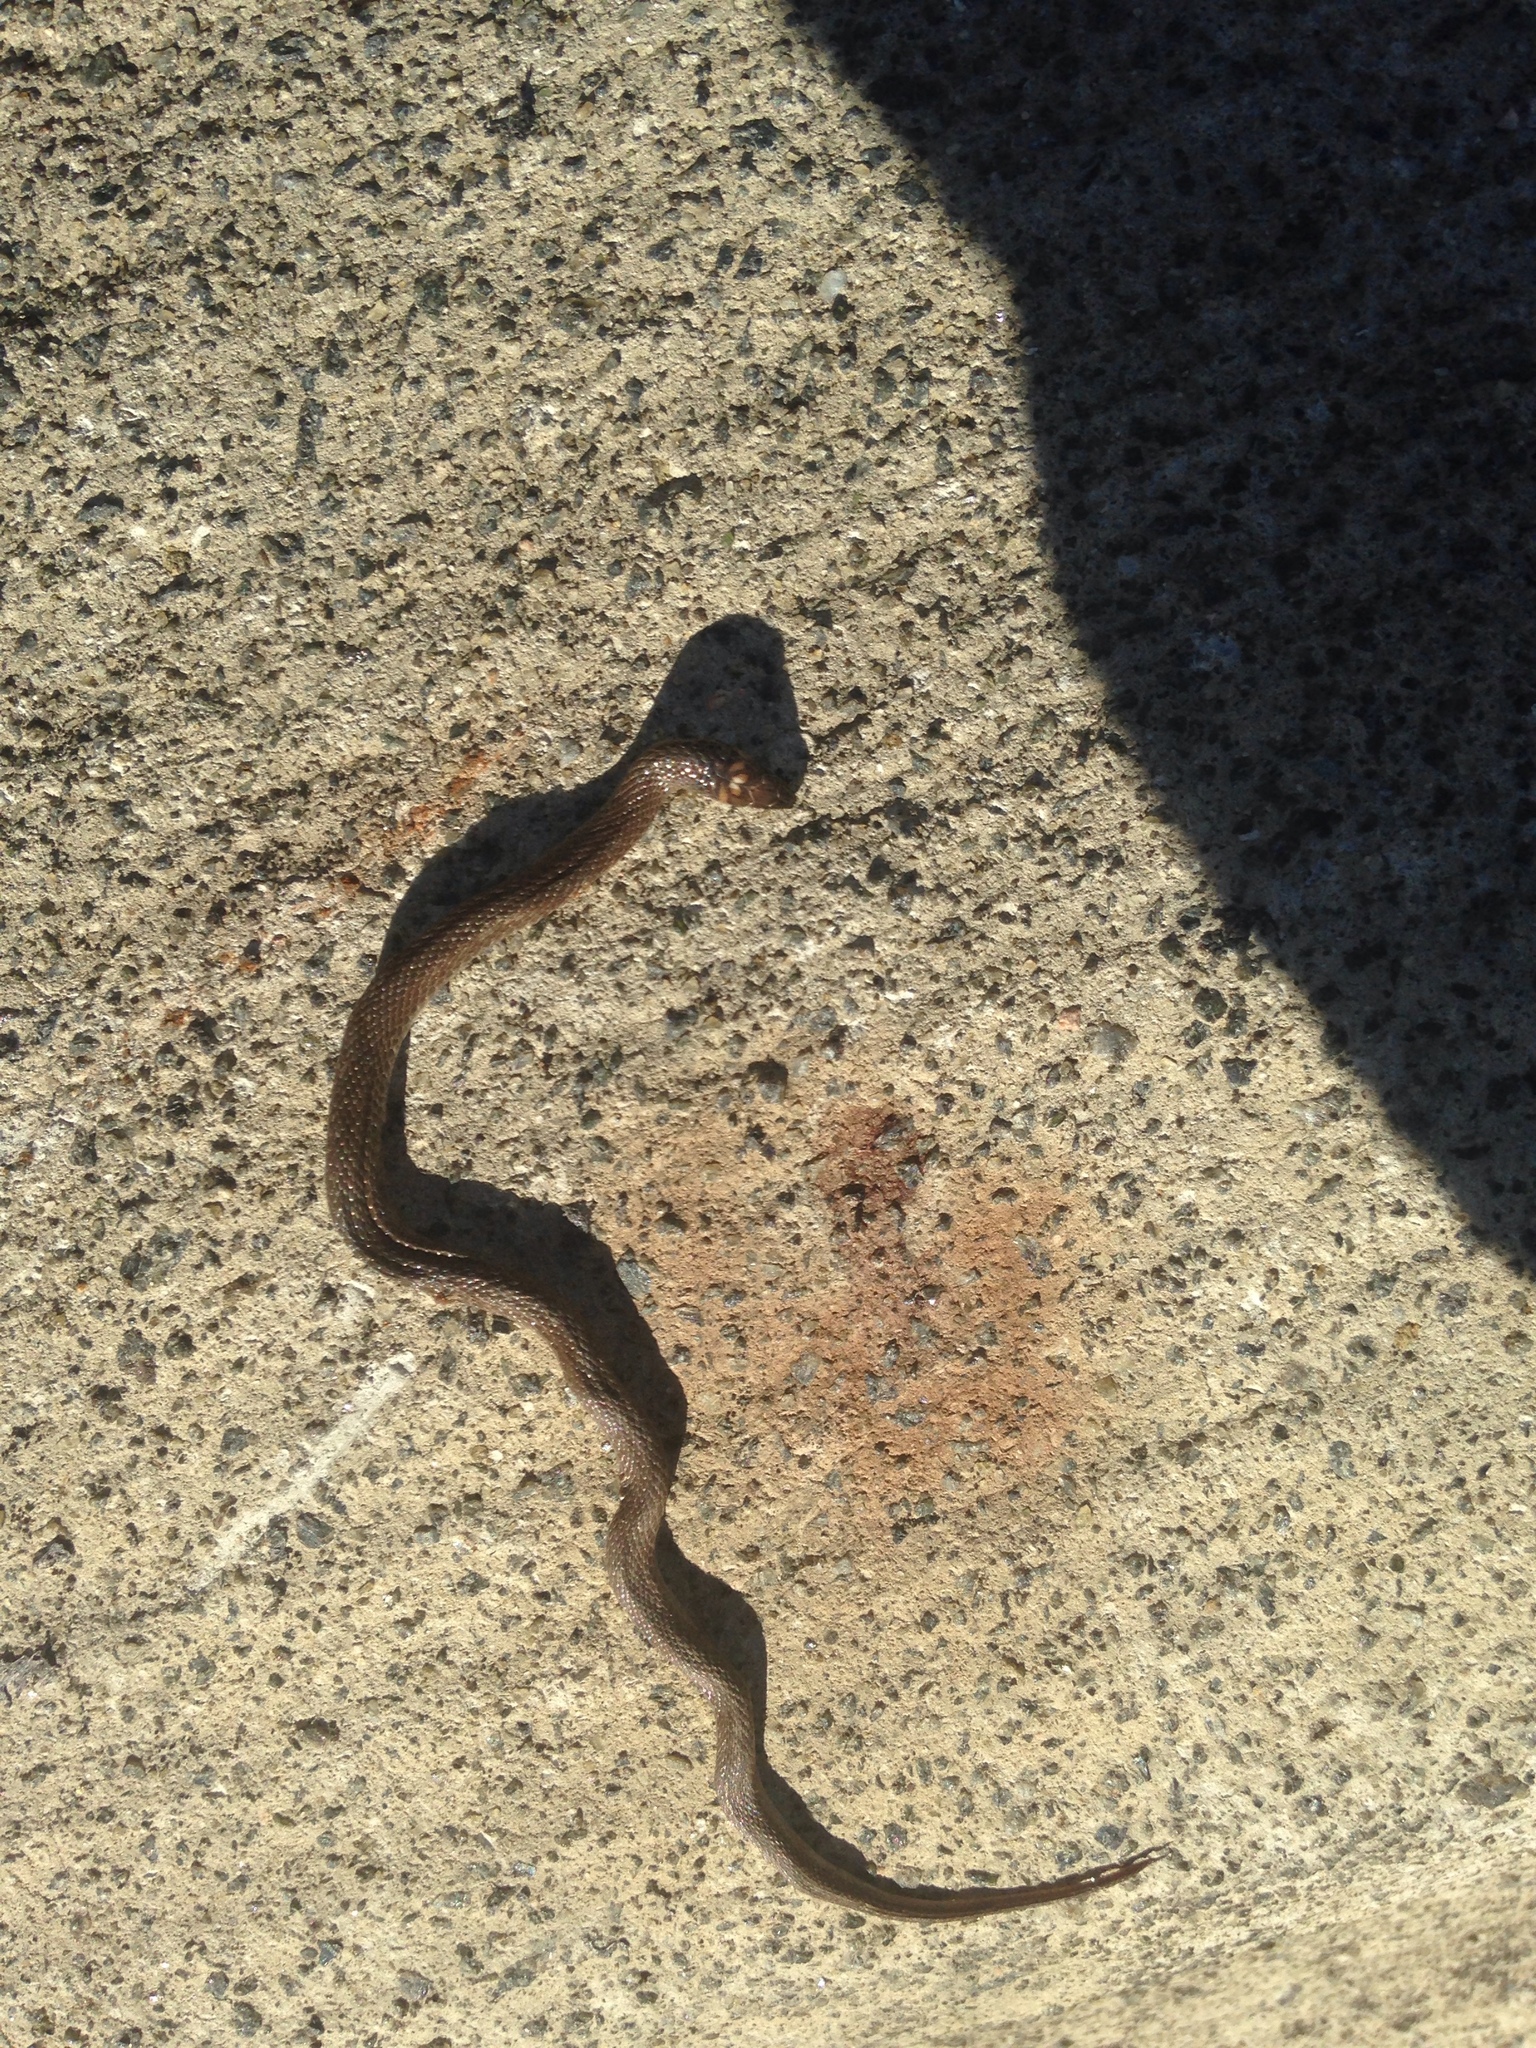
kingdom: Animalia
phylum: Chordata
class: Squamata
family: Colubridae
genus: Haldea
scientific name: Haldea striatula
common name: Rough earth snake
